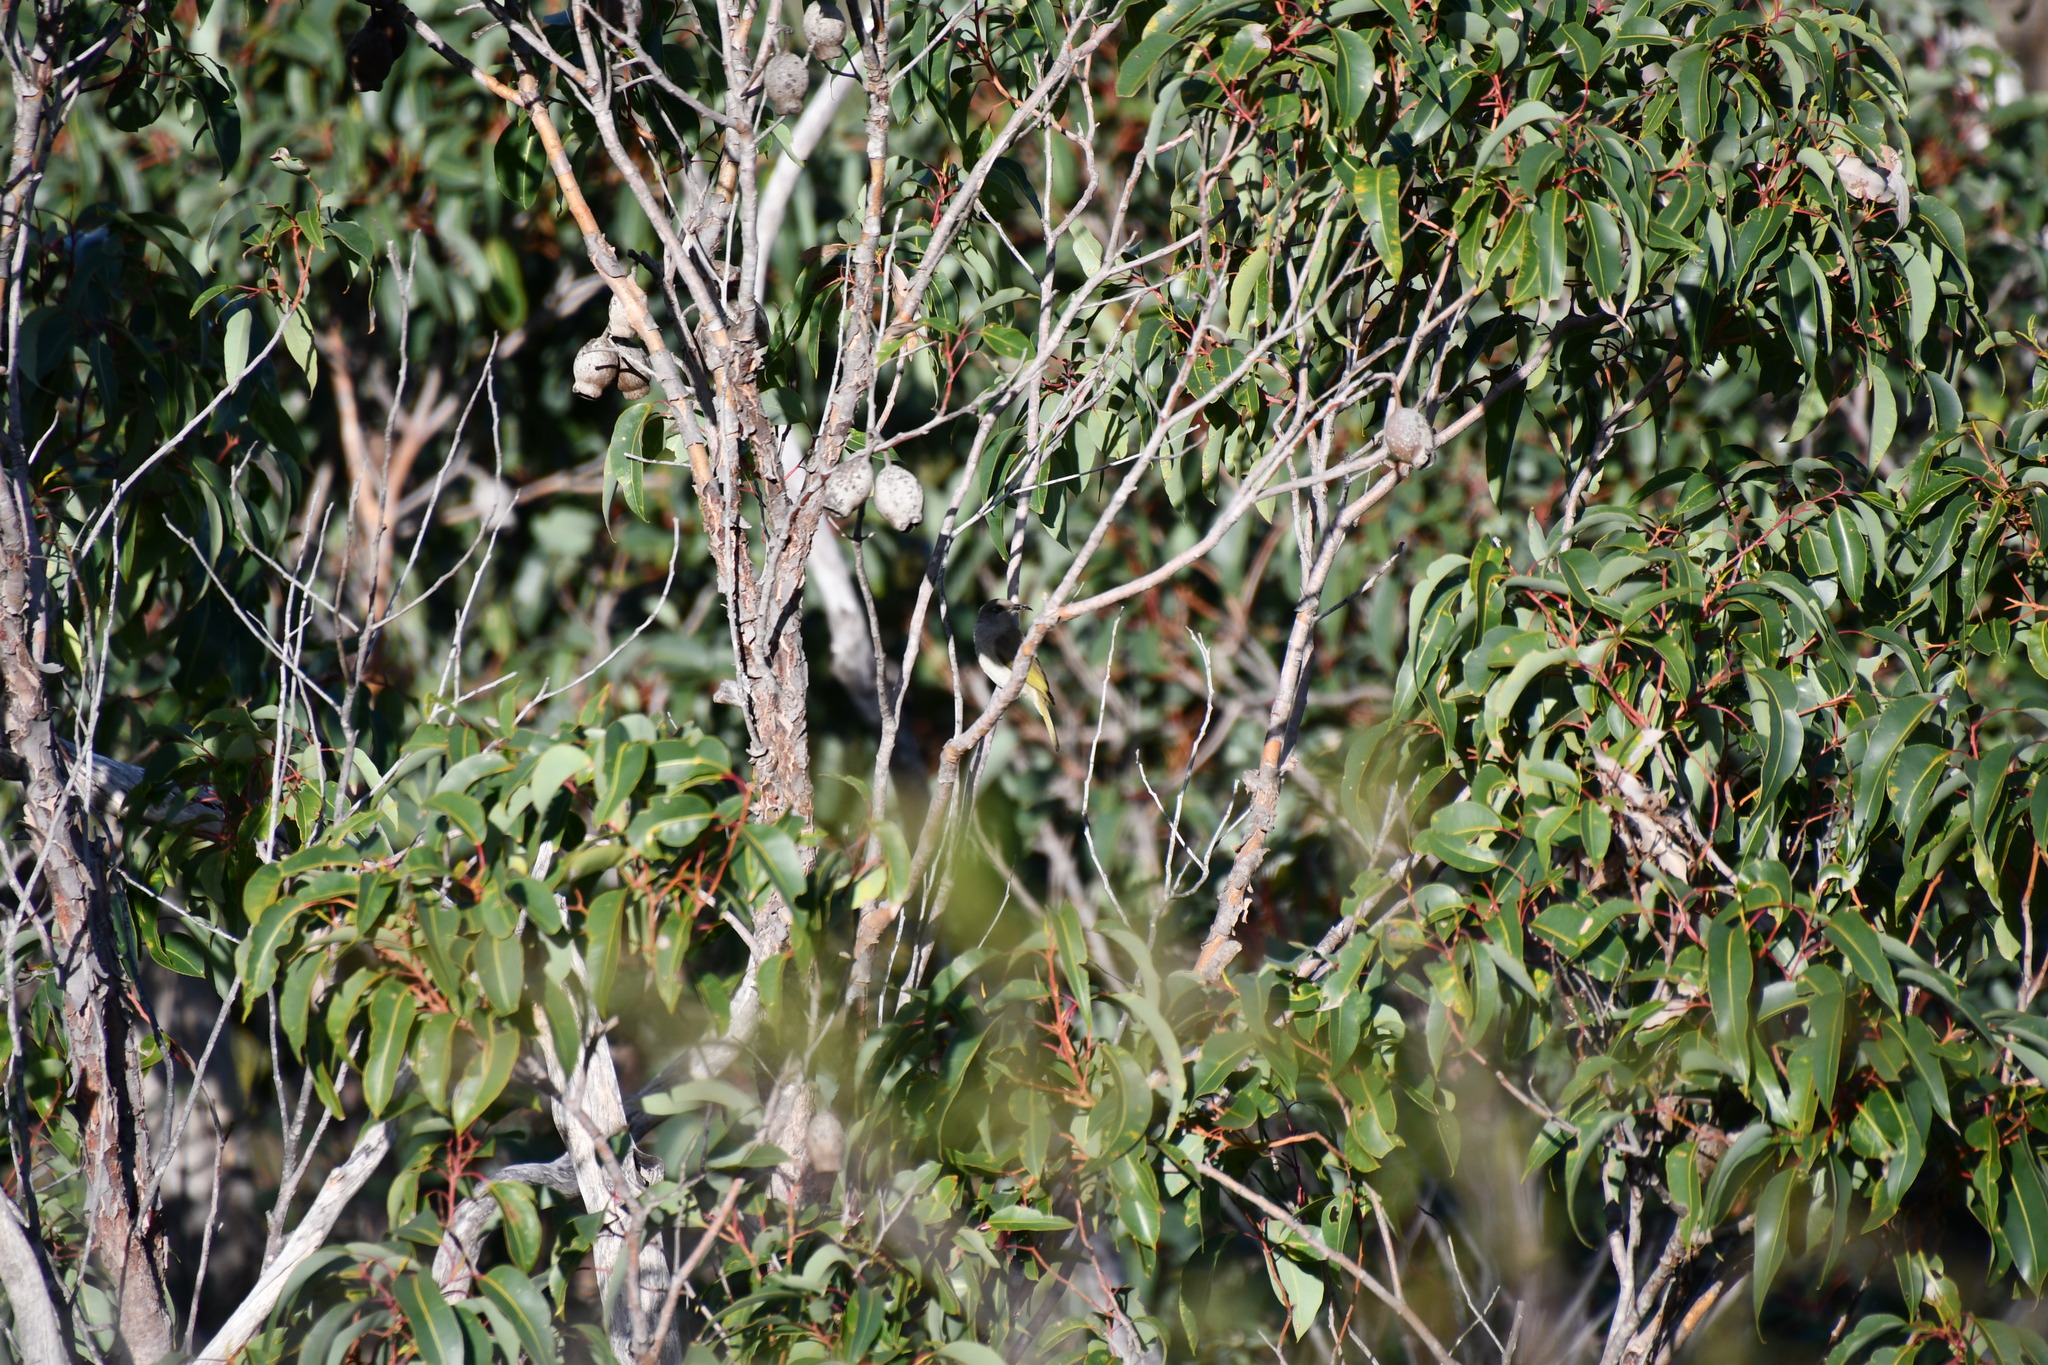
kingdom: Animalia
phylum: Chordata
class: Aves
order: Passeriformes
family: Meliphagidae
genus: Lichmera
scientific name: Lichmera indistincta
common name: Brown honeyeater
